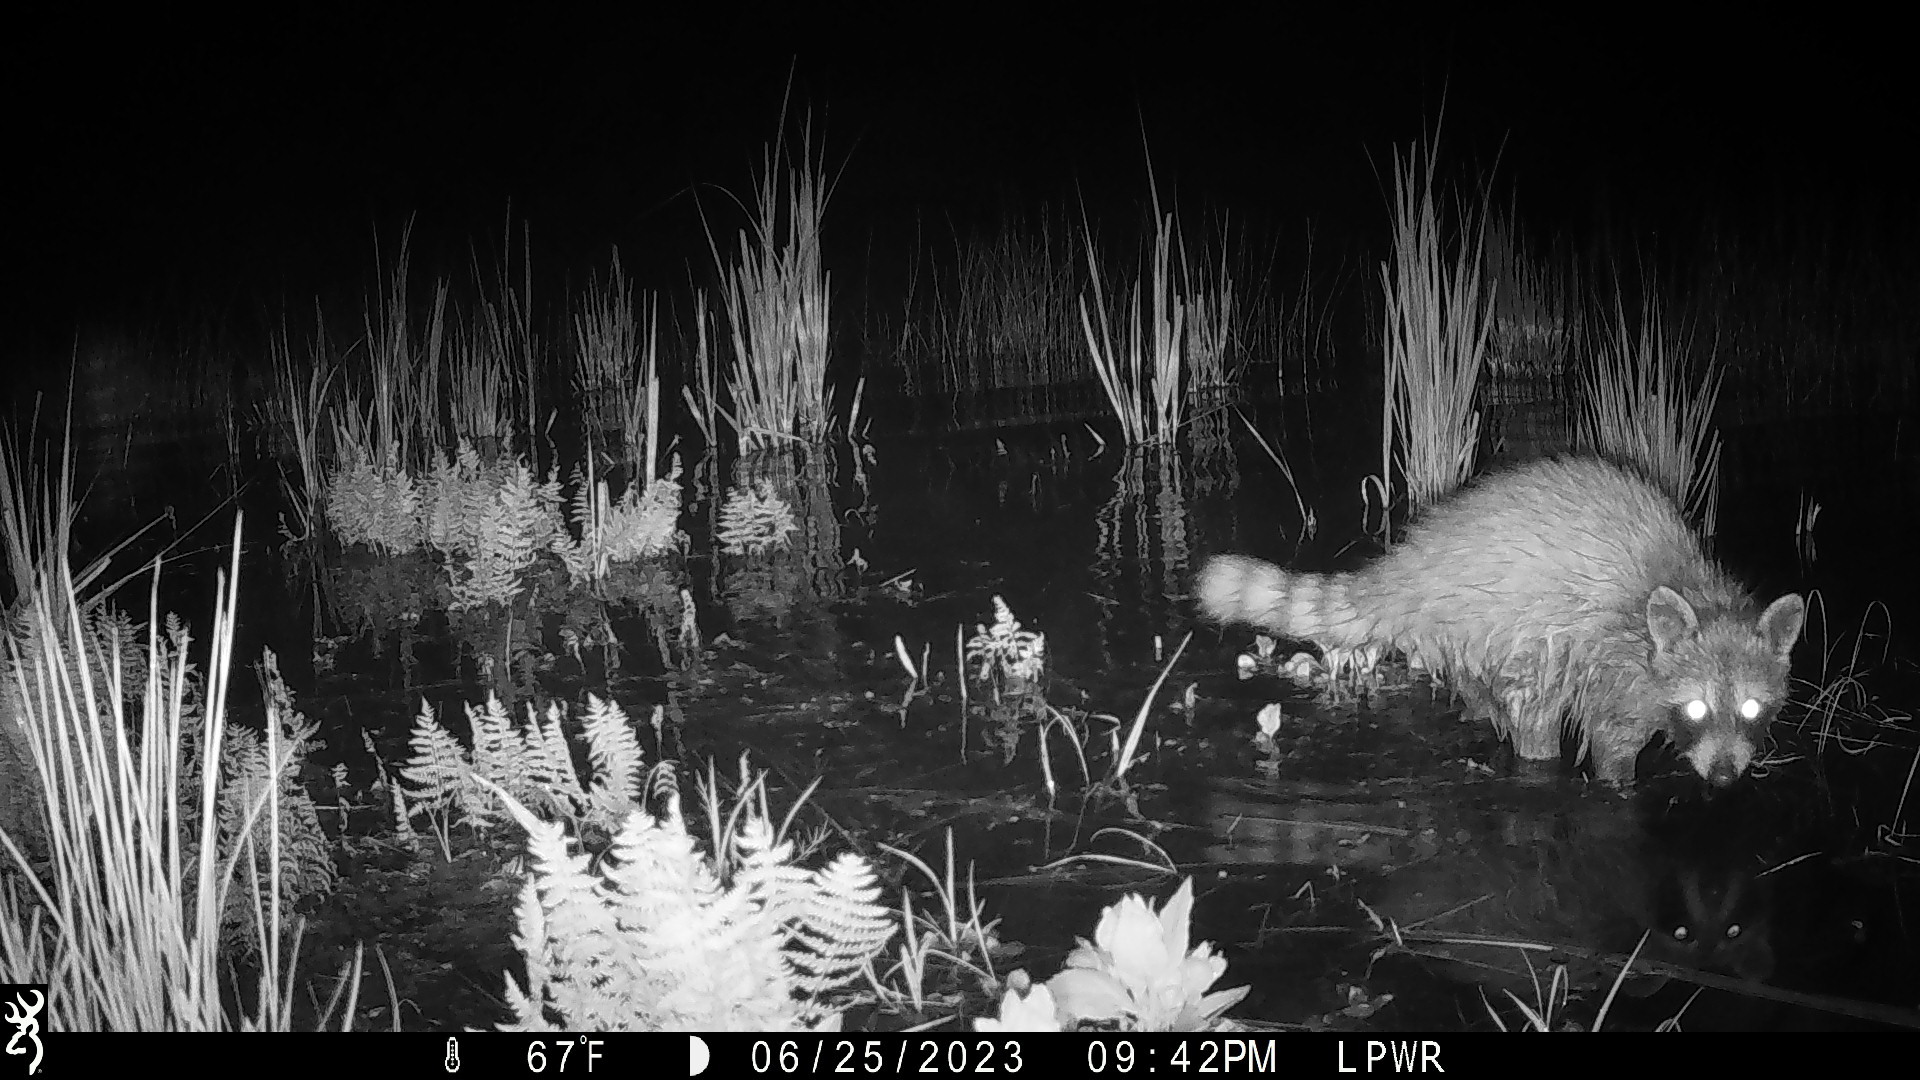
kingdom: Animalia
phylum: Chordata
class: Mammalia
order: Carnivora
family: Procyonidae
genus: Procyon
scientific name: Procyon lotor
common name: Raccoon
